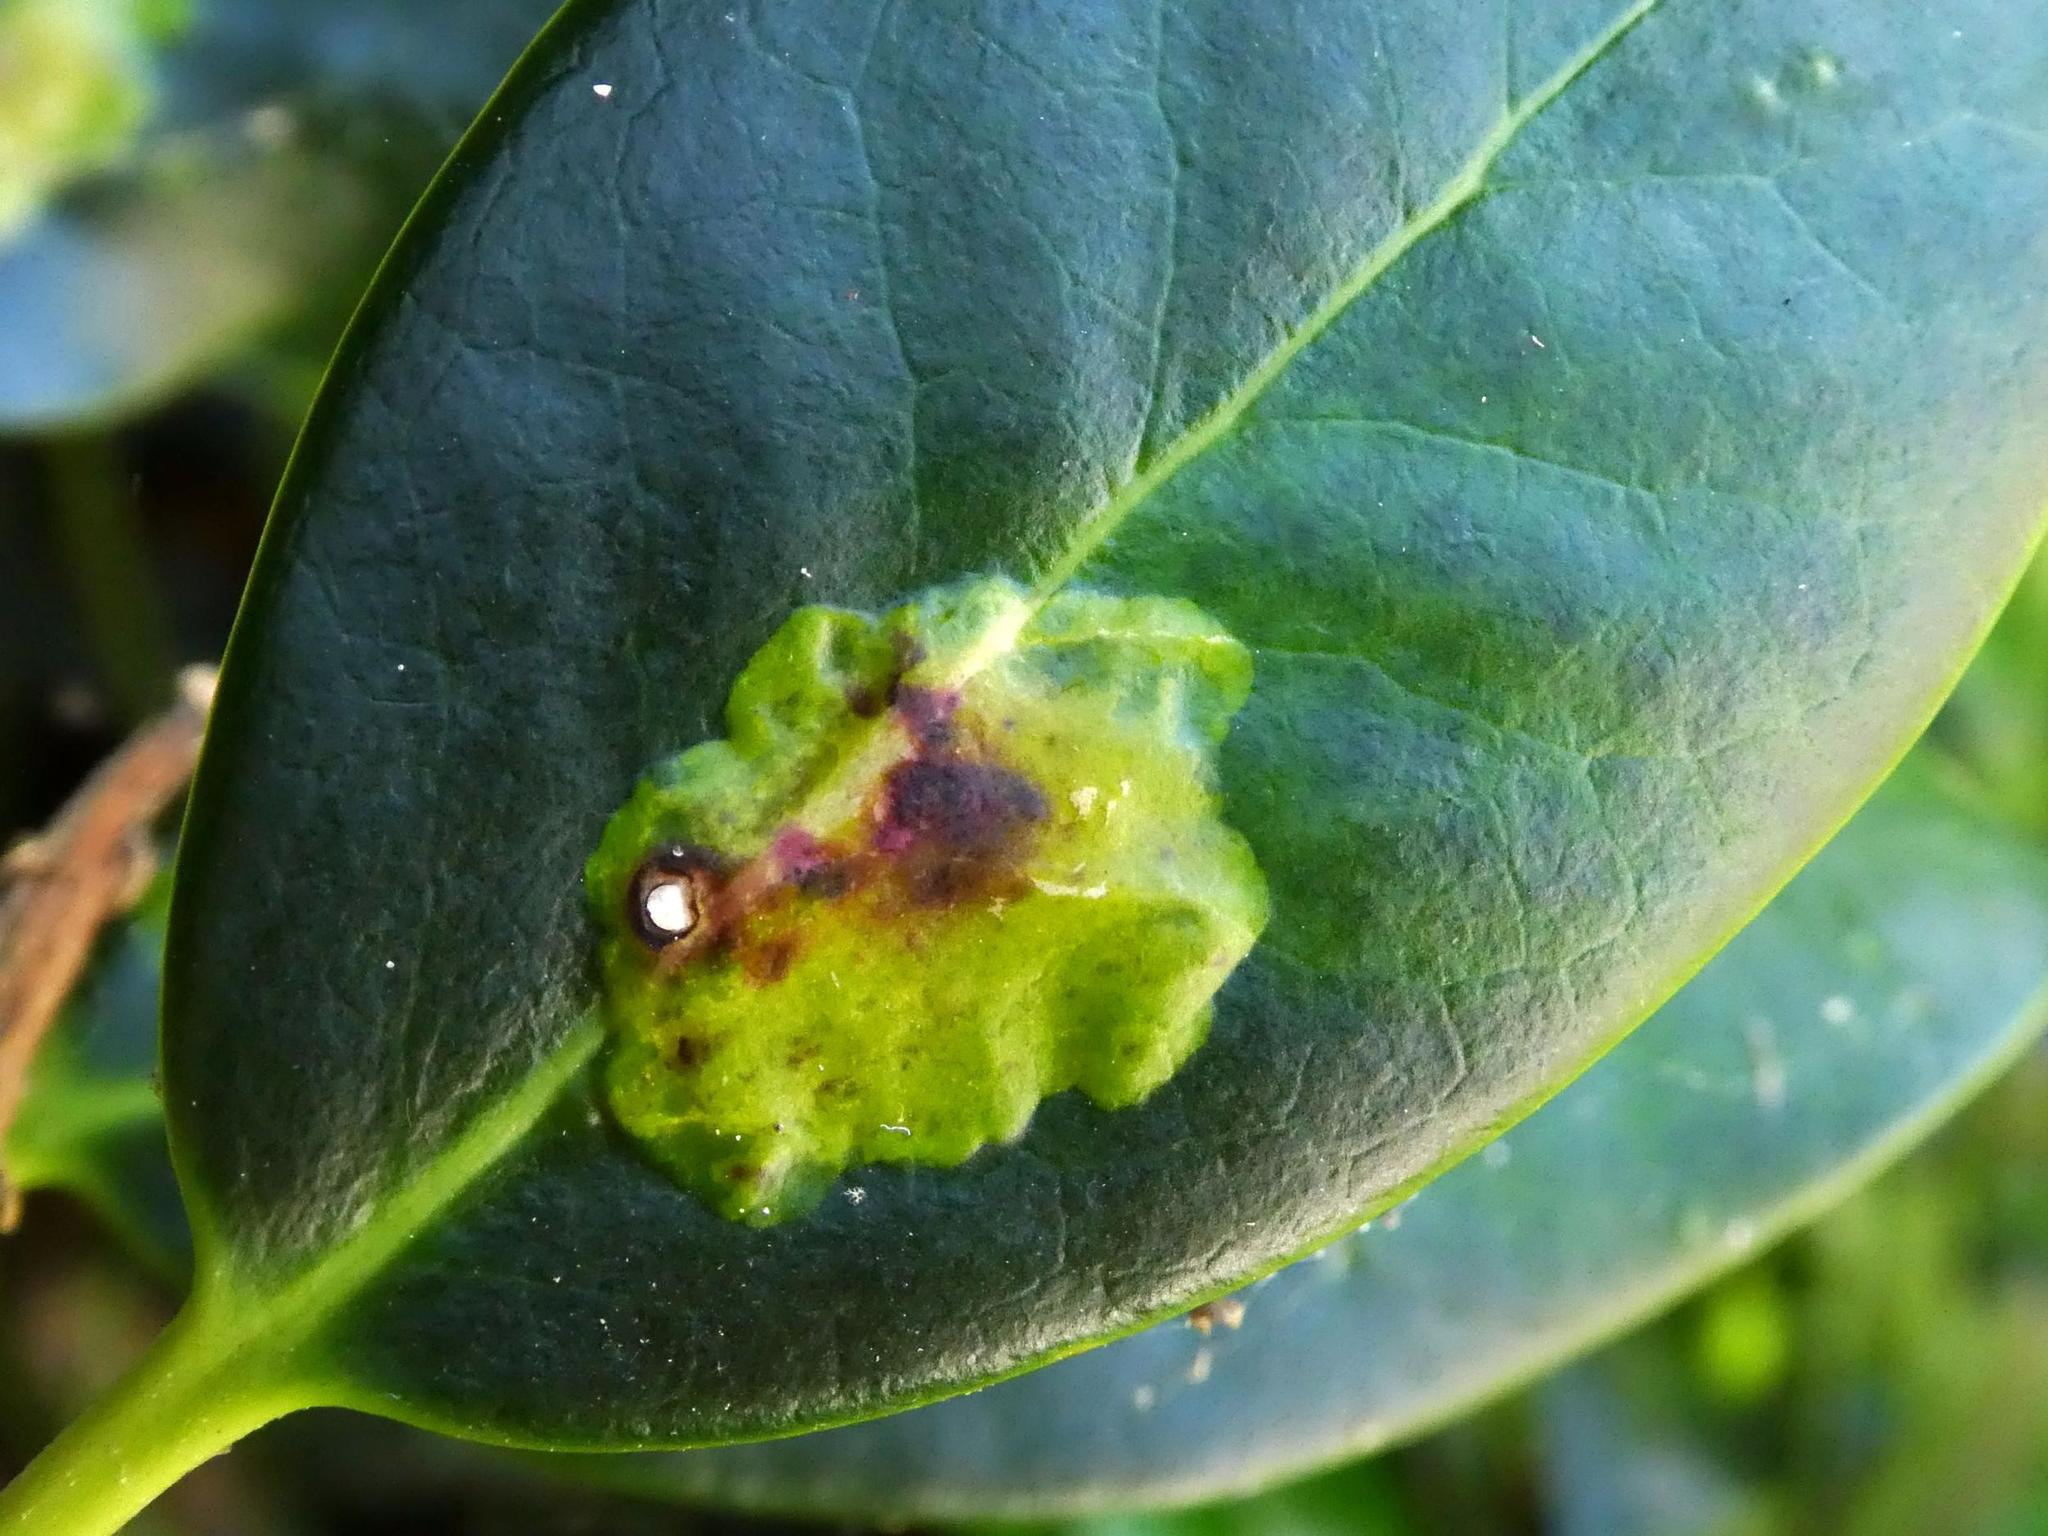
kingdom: Animalia
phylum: Arthropoda
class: Insecta
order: Diptera
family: Agromyzidae
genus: Phytomyza
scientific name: Phytomyza ilicis
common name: Holly leafminer
